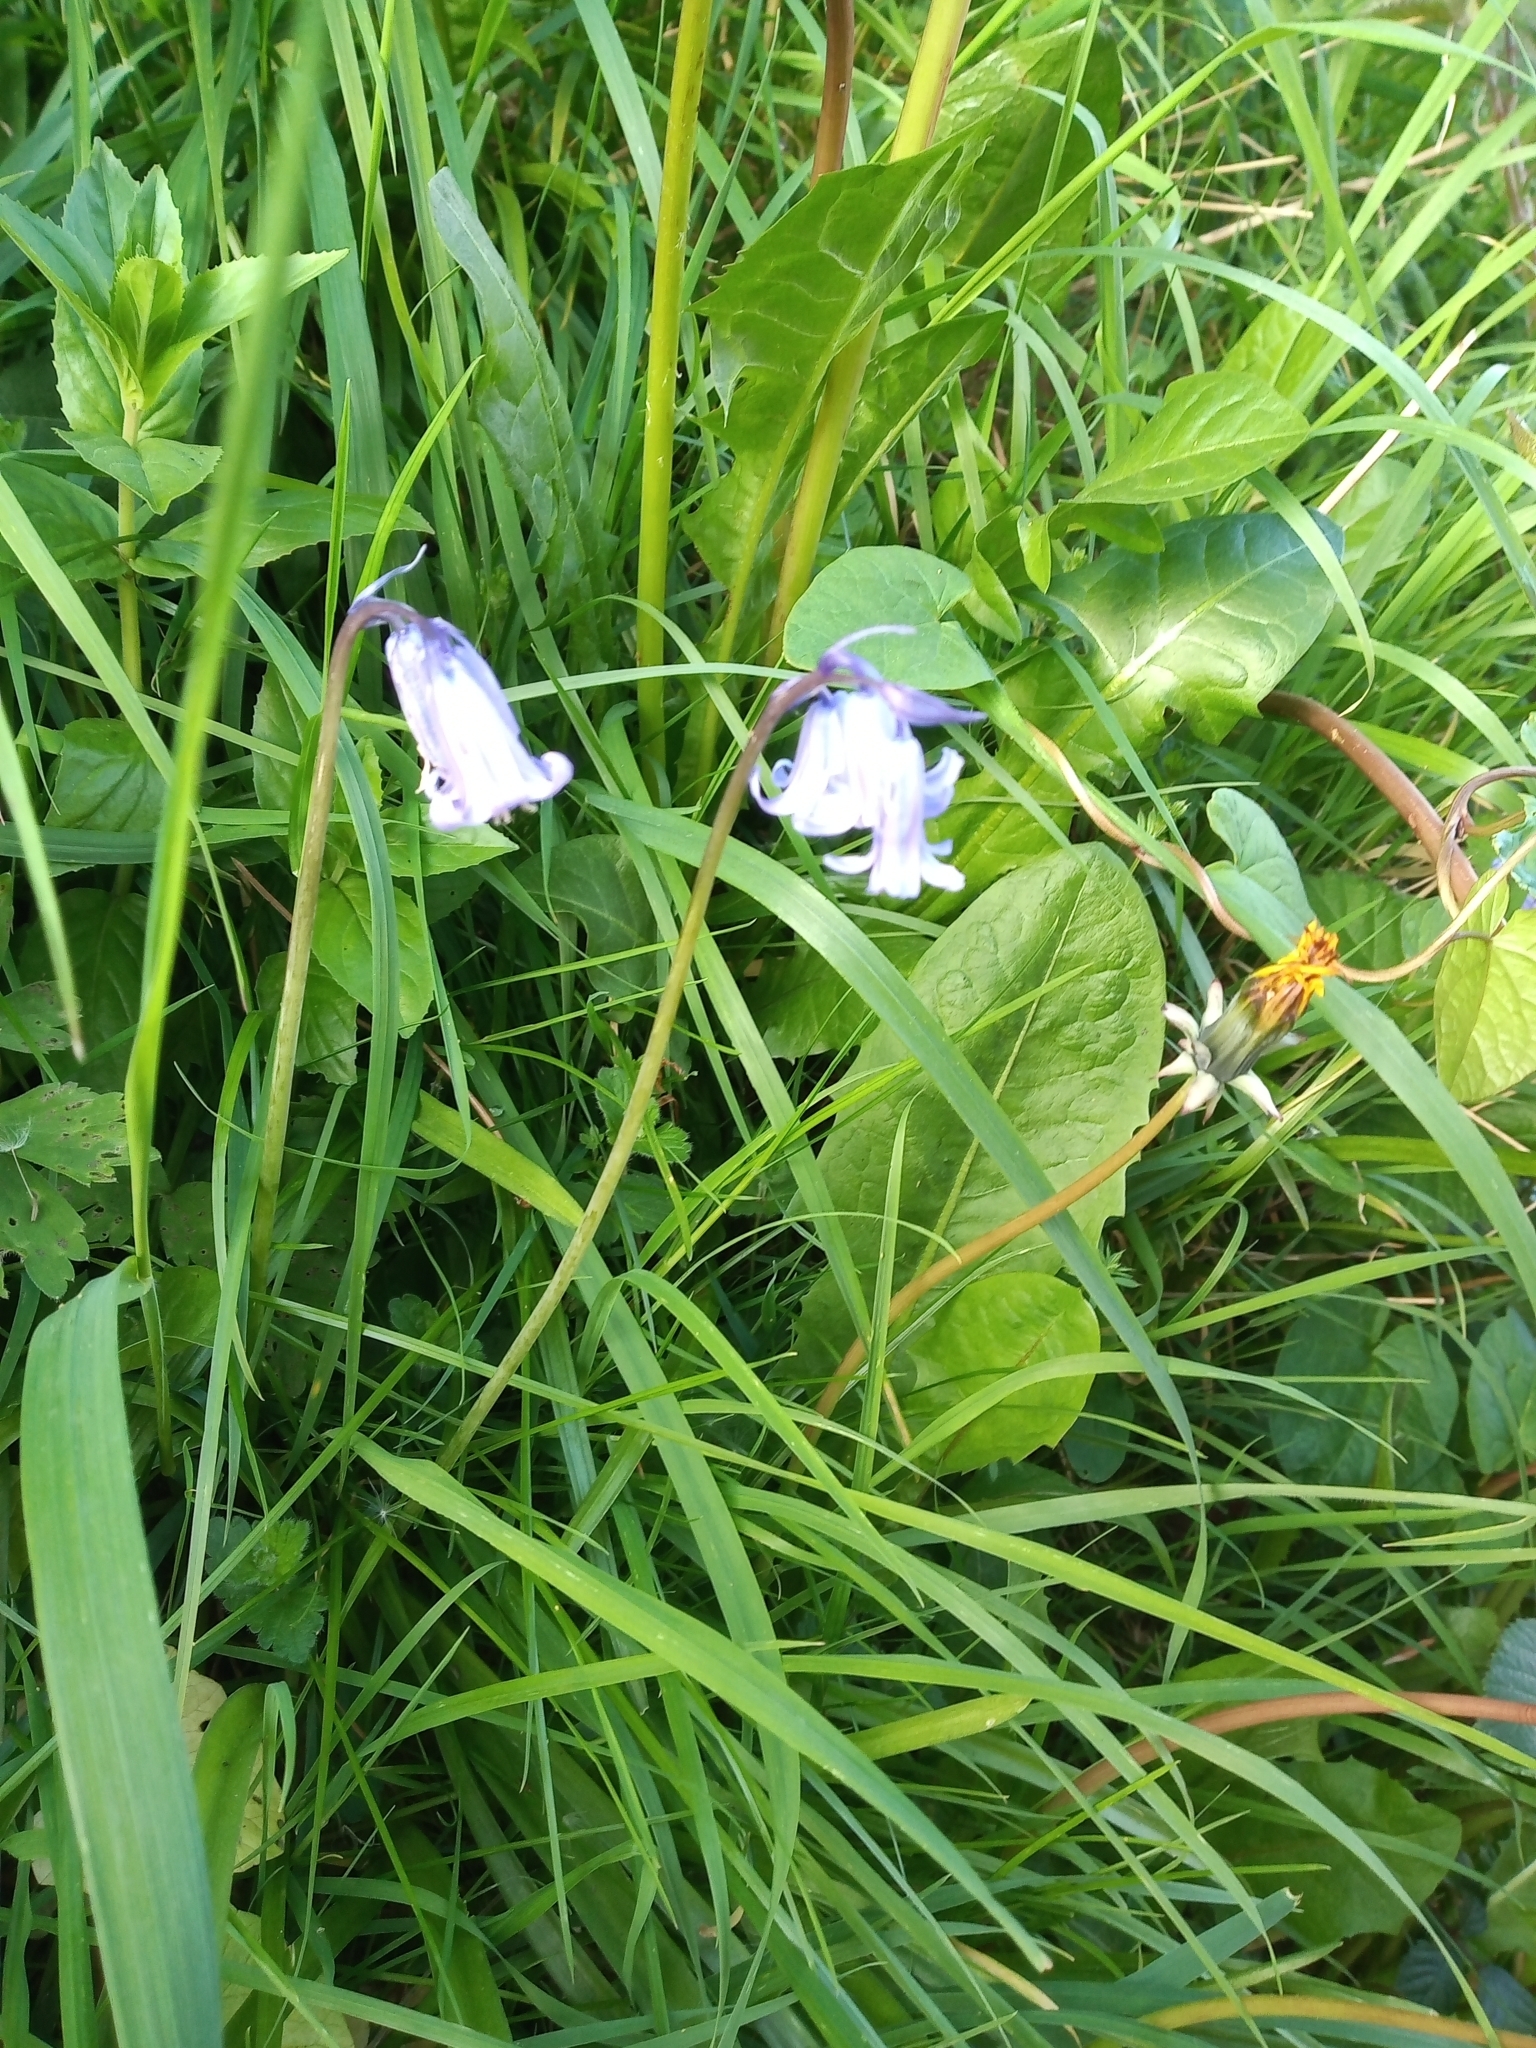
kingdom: Plantae
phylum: Tracheophyta
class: Liliopsida
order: Asparagales
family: Asparagaceae
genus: Hyacinthoides
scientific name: Hyacinthoides massartiana
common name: Hyacinthoides
